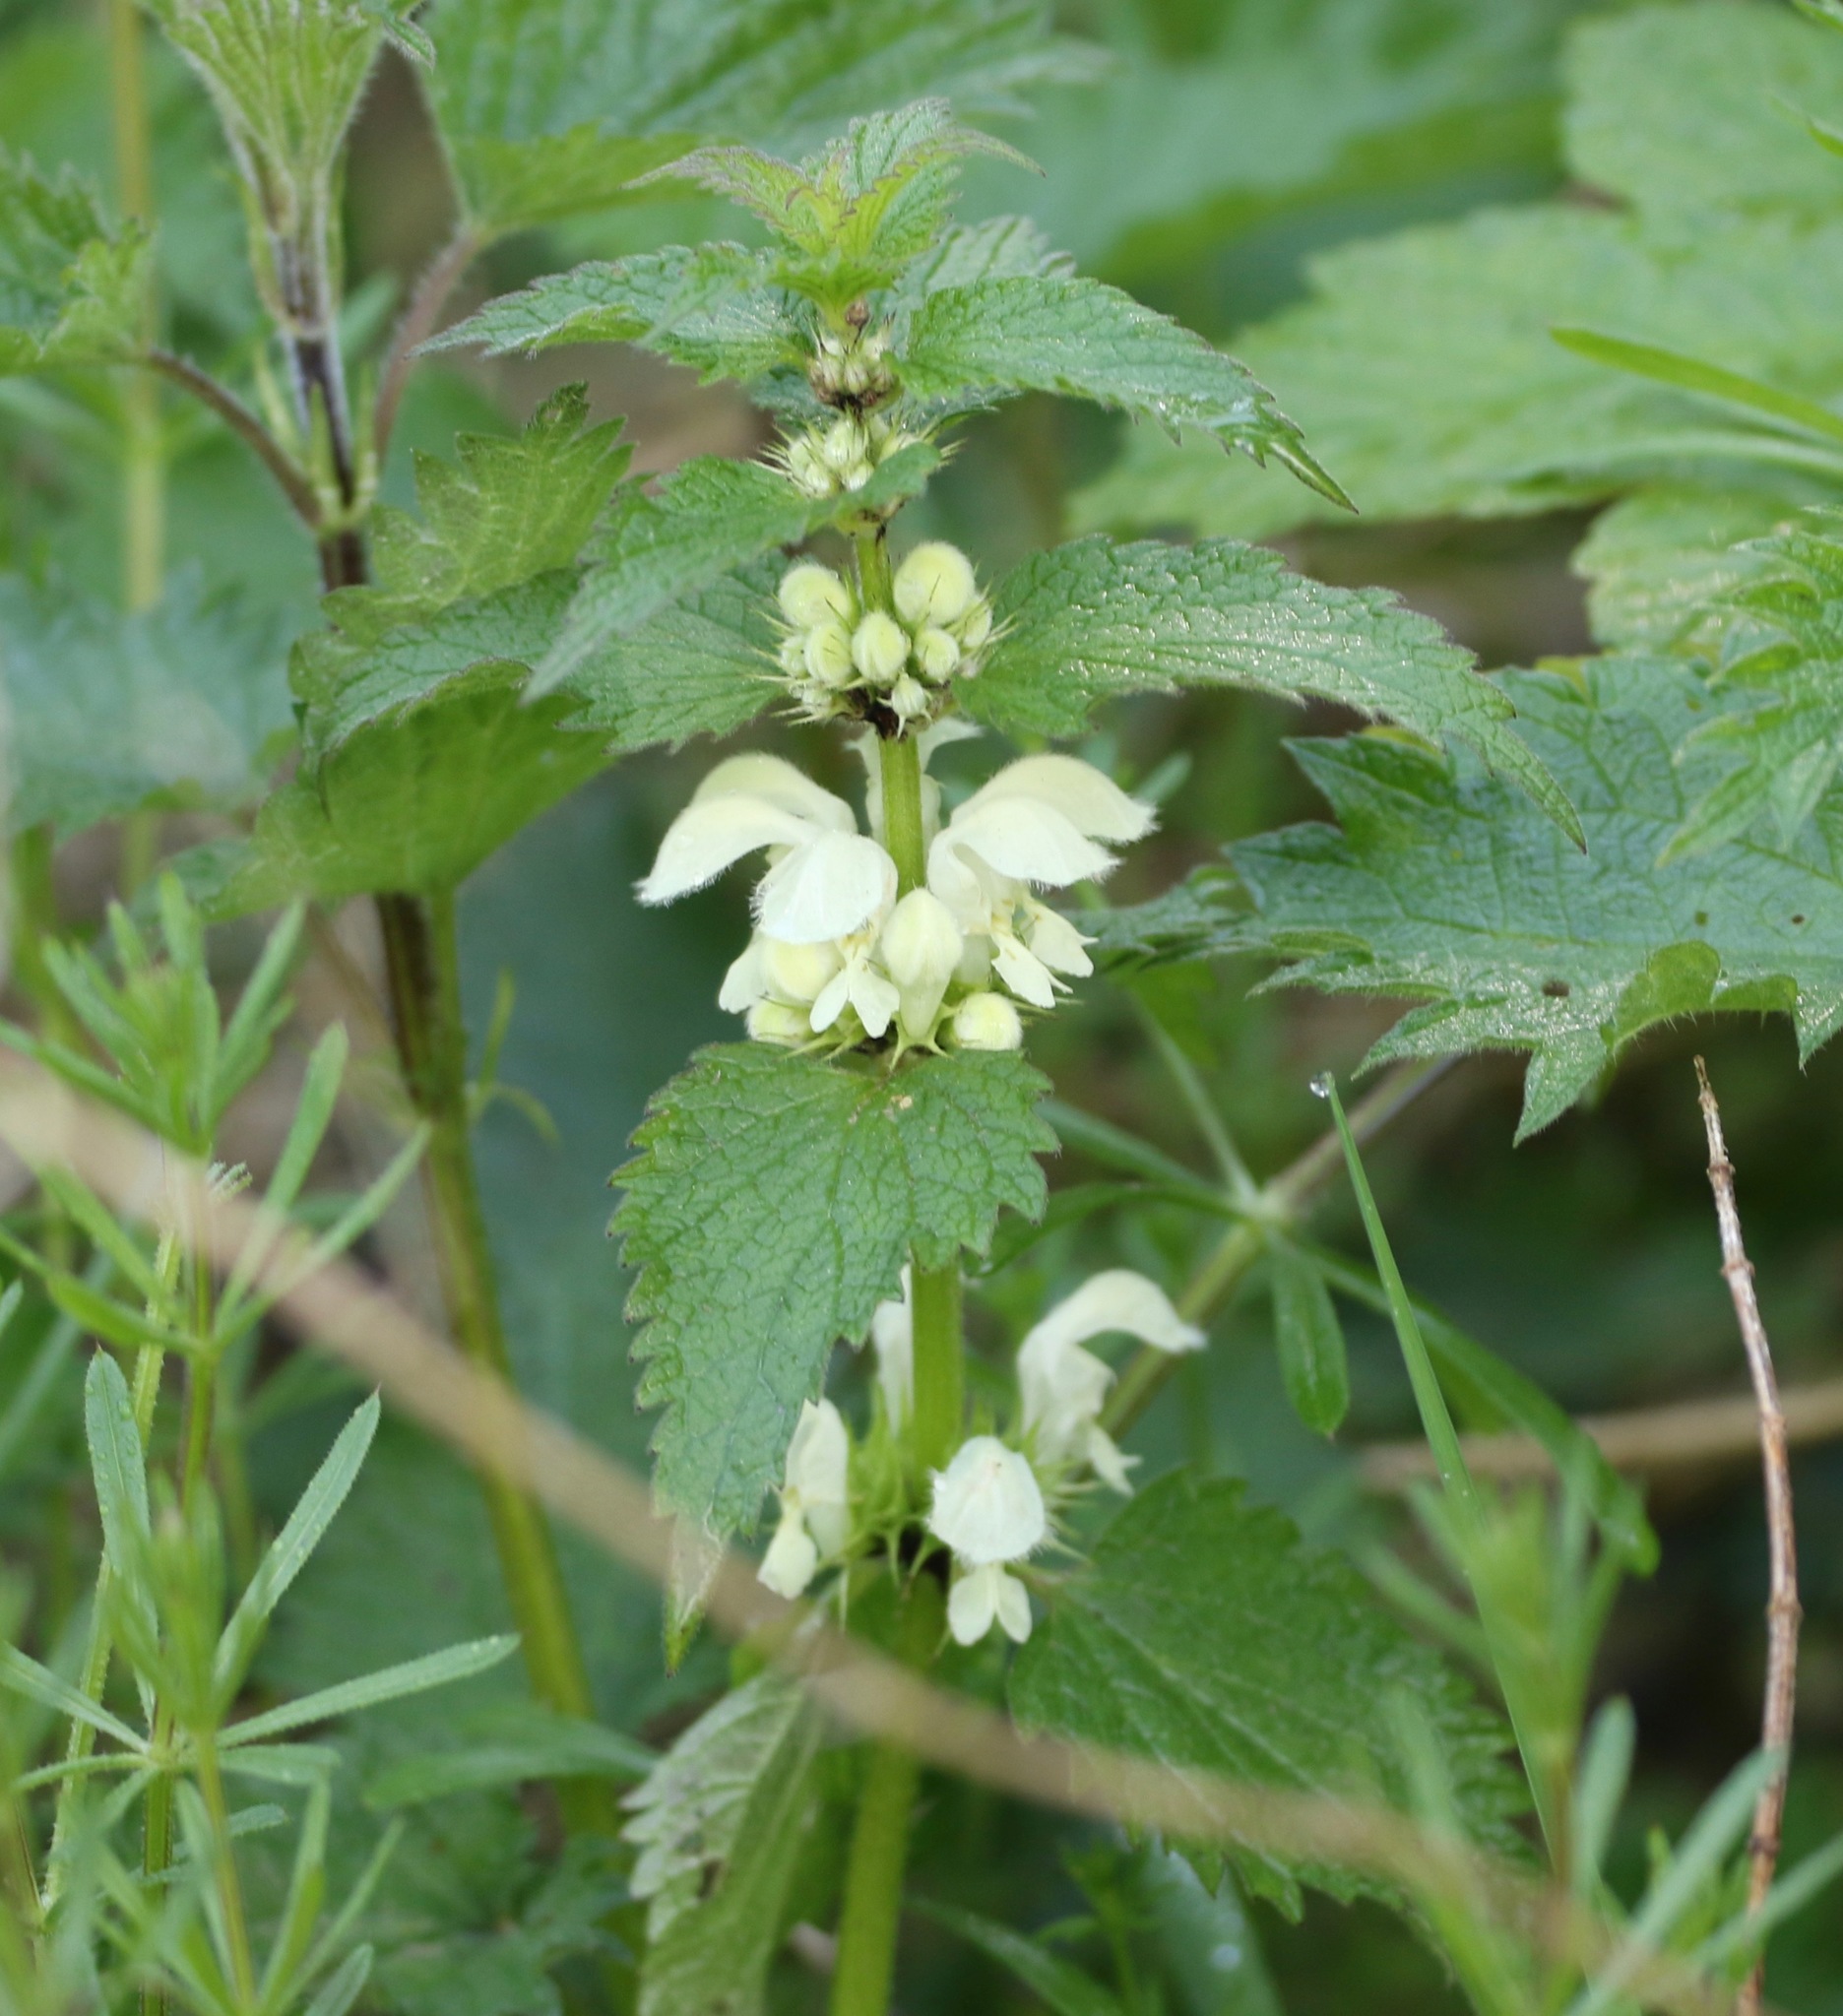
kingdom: Plantae
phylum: Tracheophyta
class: Magnoliopsida
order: Lamiales
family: Lamiaceae
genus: Lamium
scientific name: Lamium album
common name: White dead-nettle
